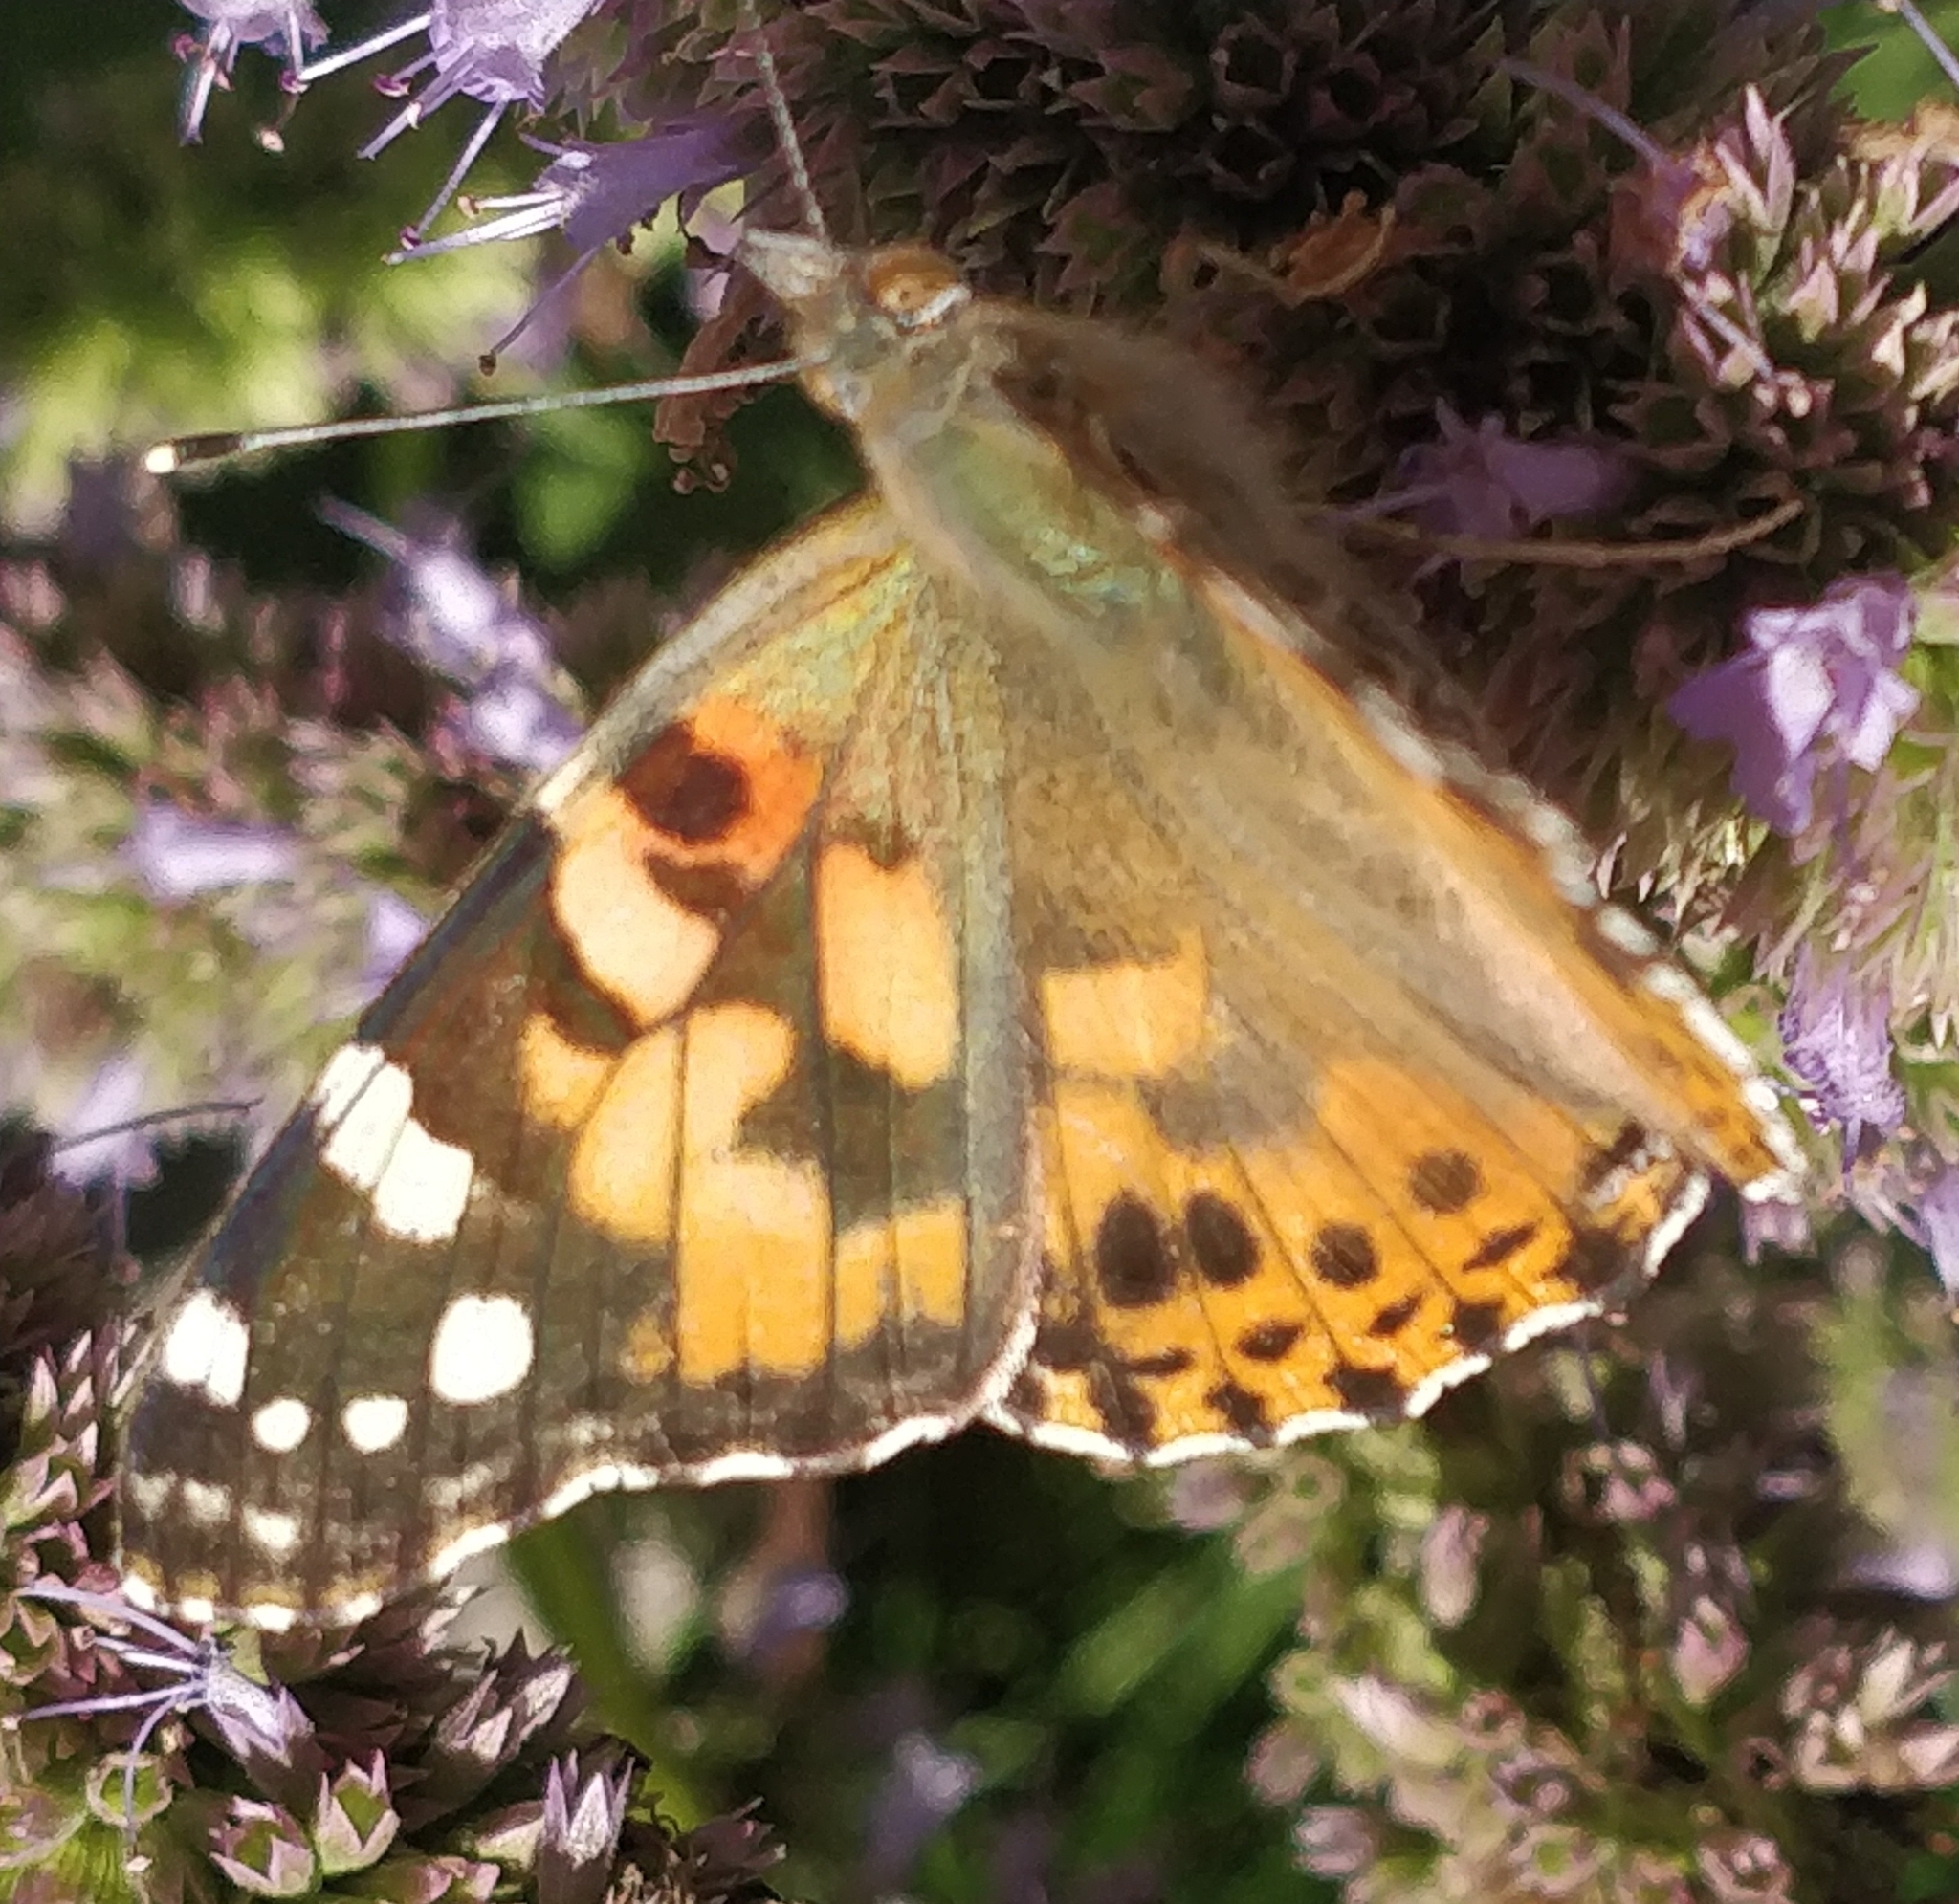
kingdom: Animalia
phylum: Arthropoda
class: Insecta
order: Lepidoptera
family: Nymphalidae
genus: Vanessa
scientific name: Vanessa cardui
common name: Painted lady
